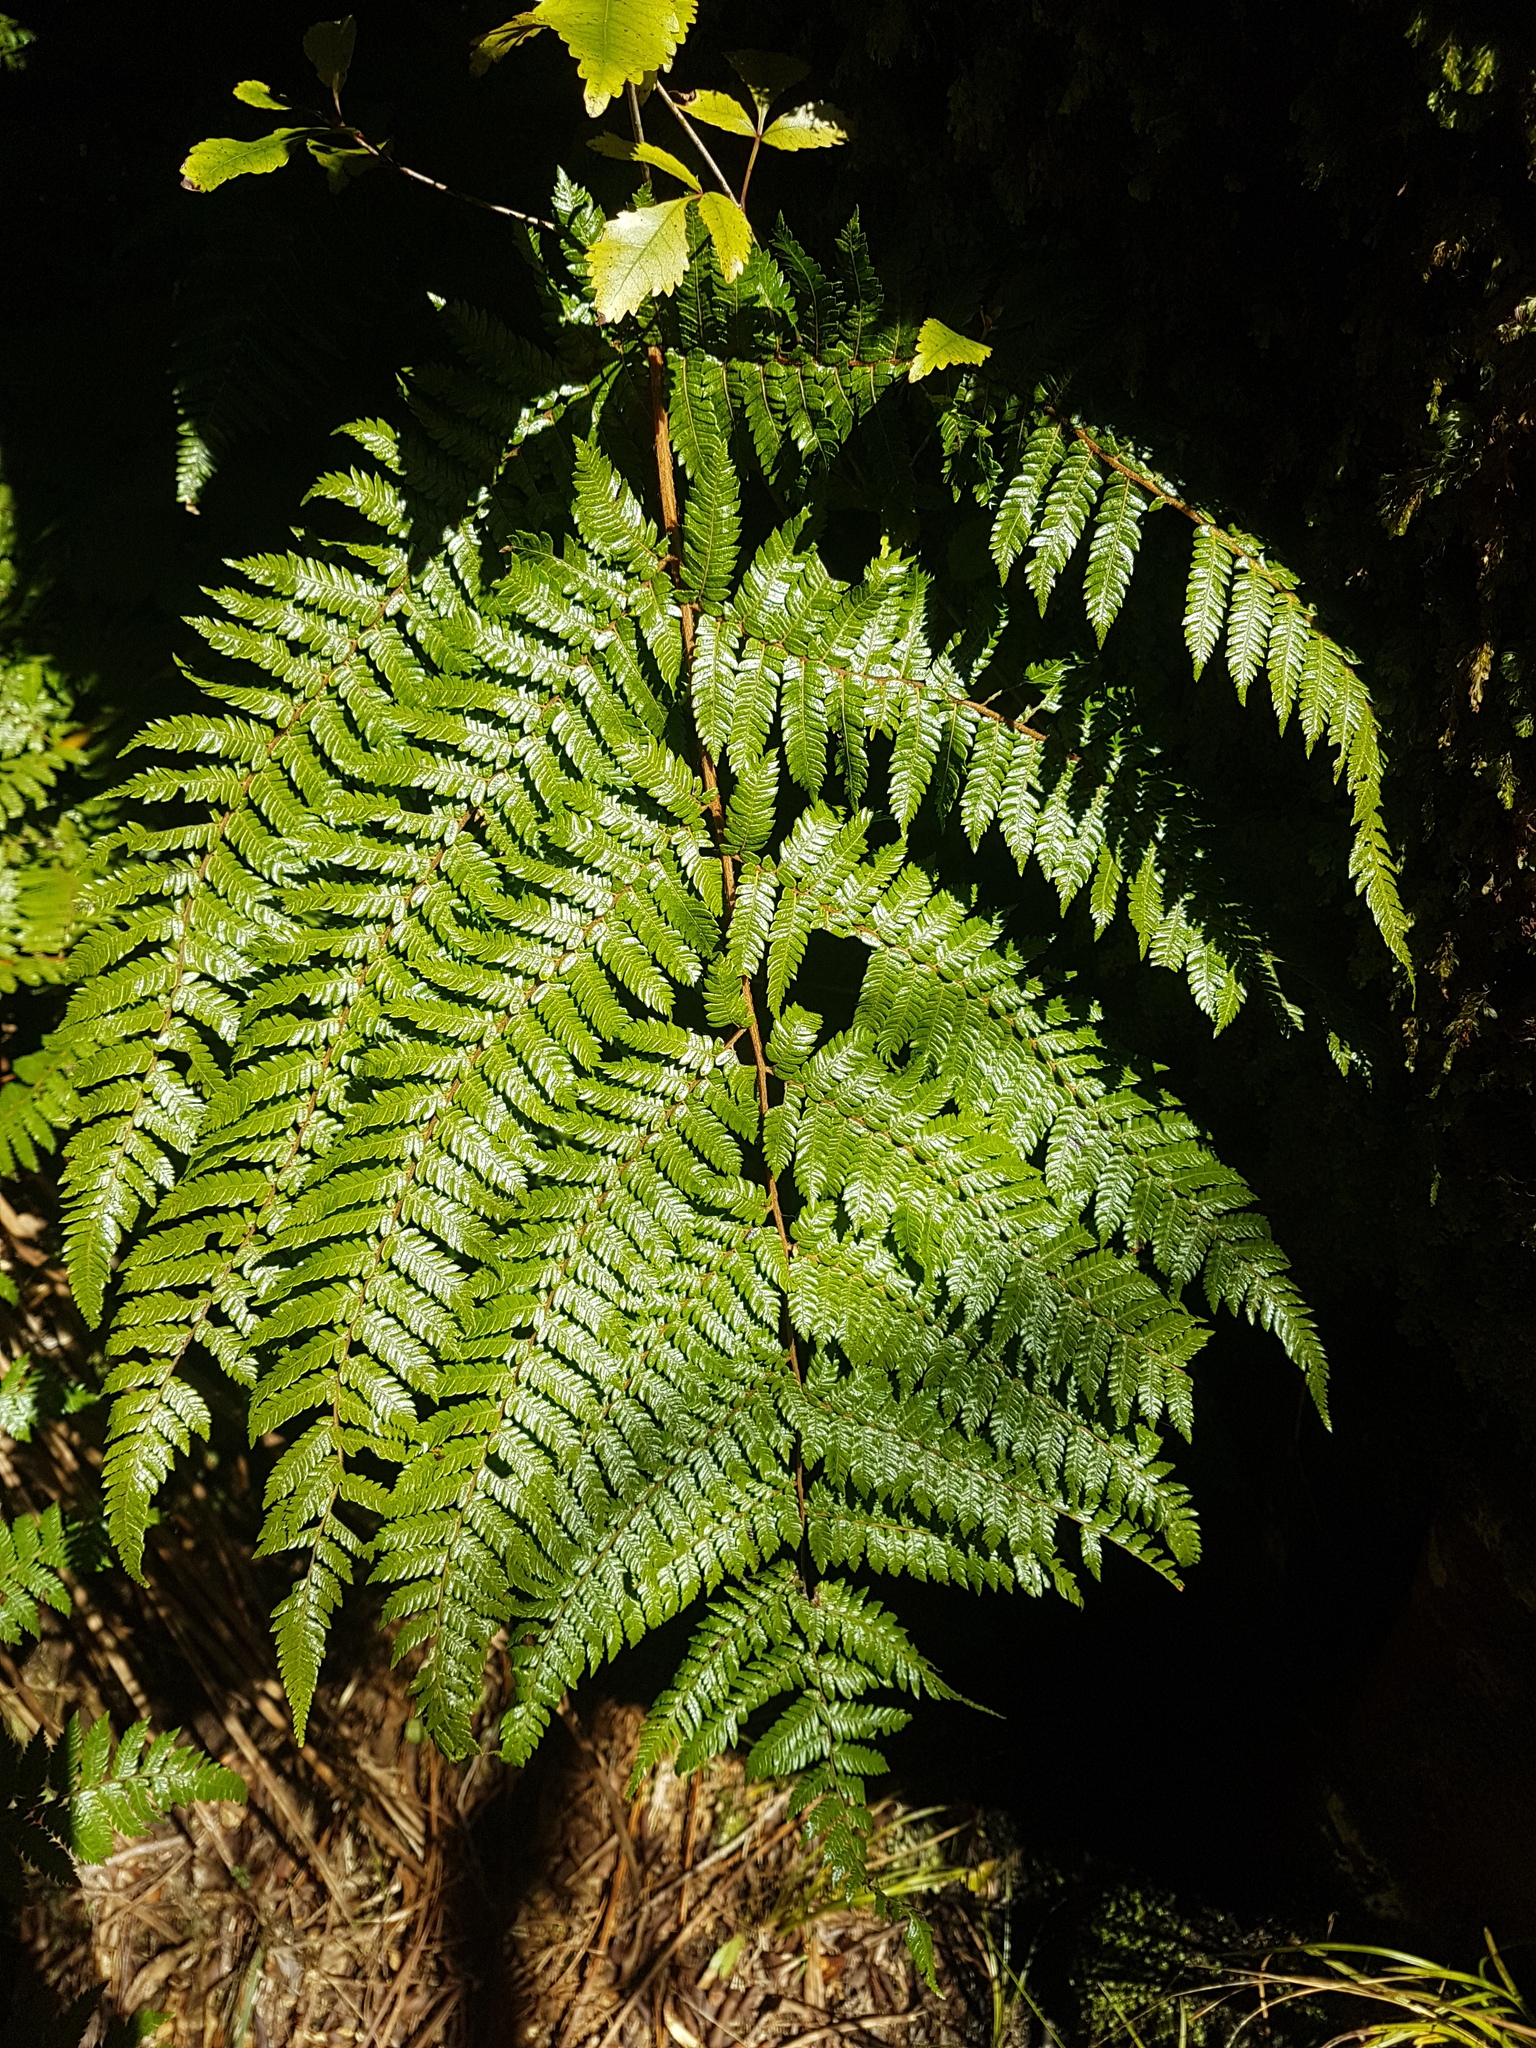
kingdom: Plantae
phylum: Tracheophyta
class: Polypodiopsida
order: Cyatheales
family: Cyatheaceae
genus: Alsophila
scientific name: Alsophila smithii
